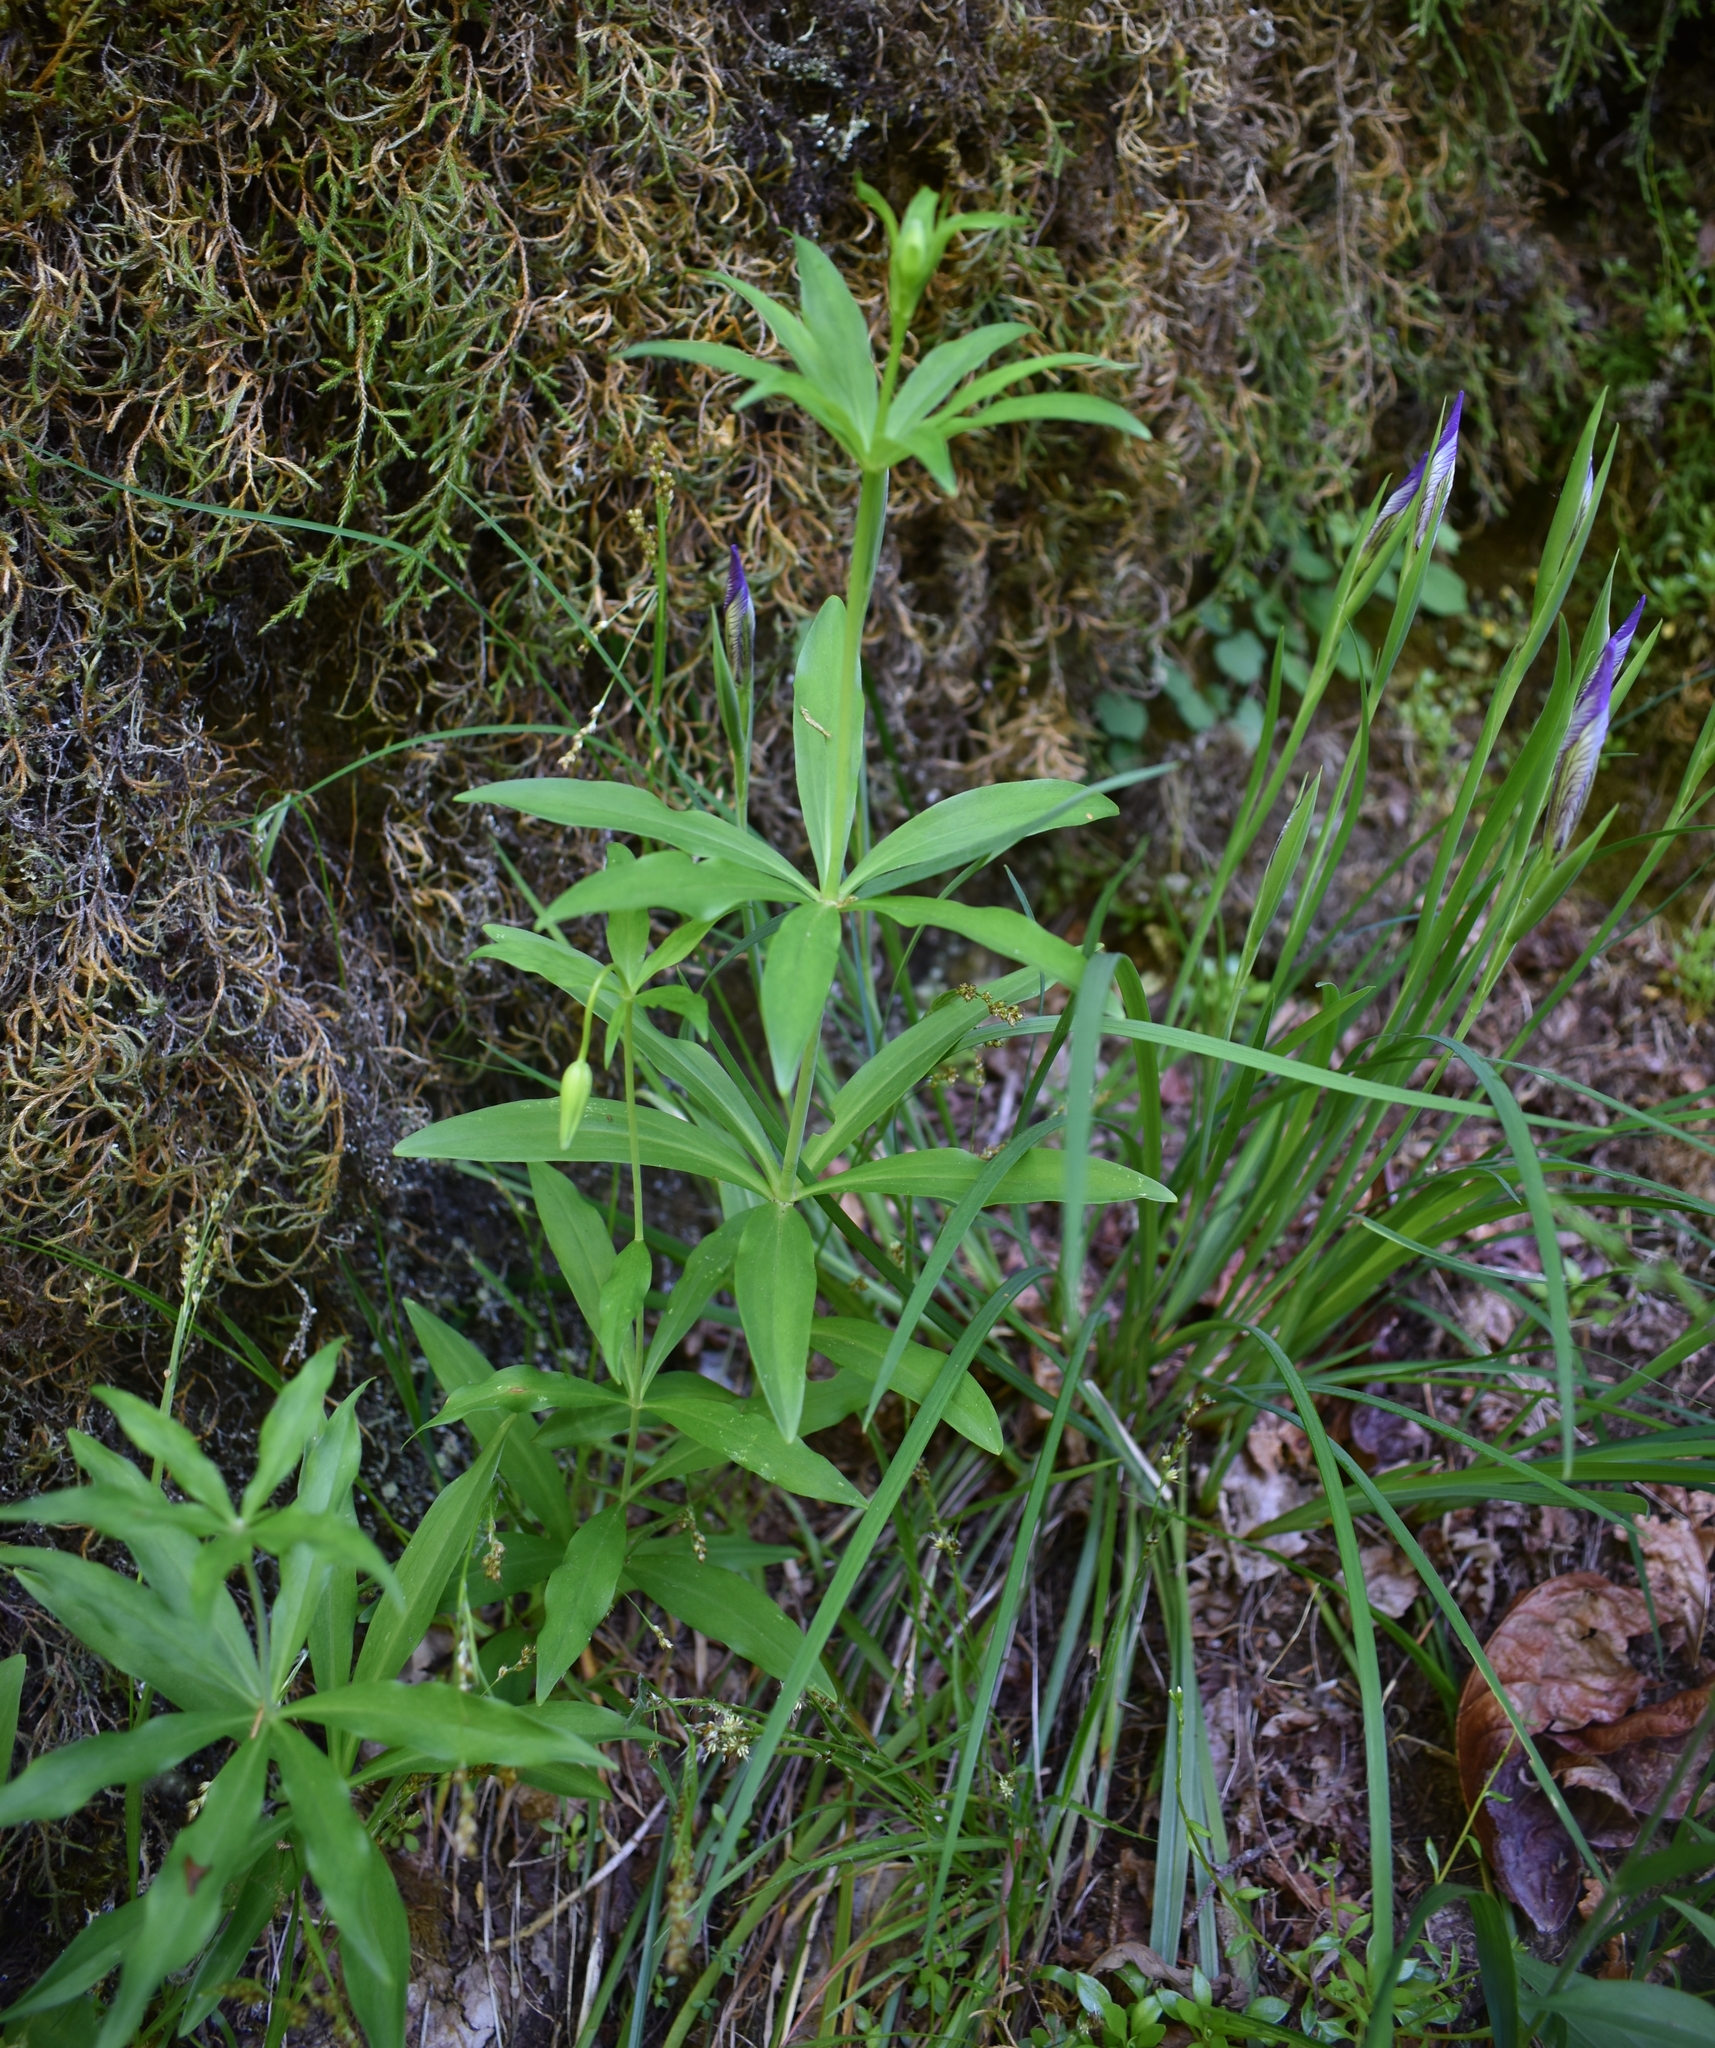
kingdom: Plantae
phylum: Tracheophyta
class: Liliopsida
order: Liliales
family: Liliaceae
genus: Lilium
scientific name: Lilium columbianum
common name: Columbia lily
